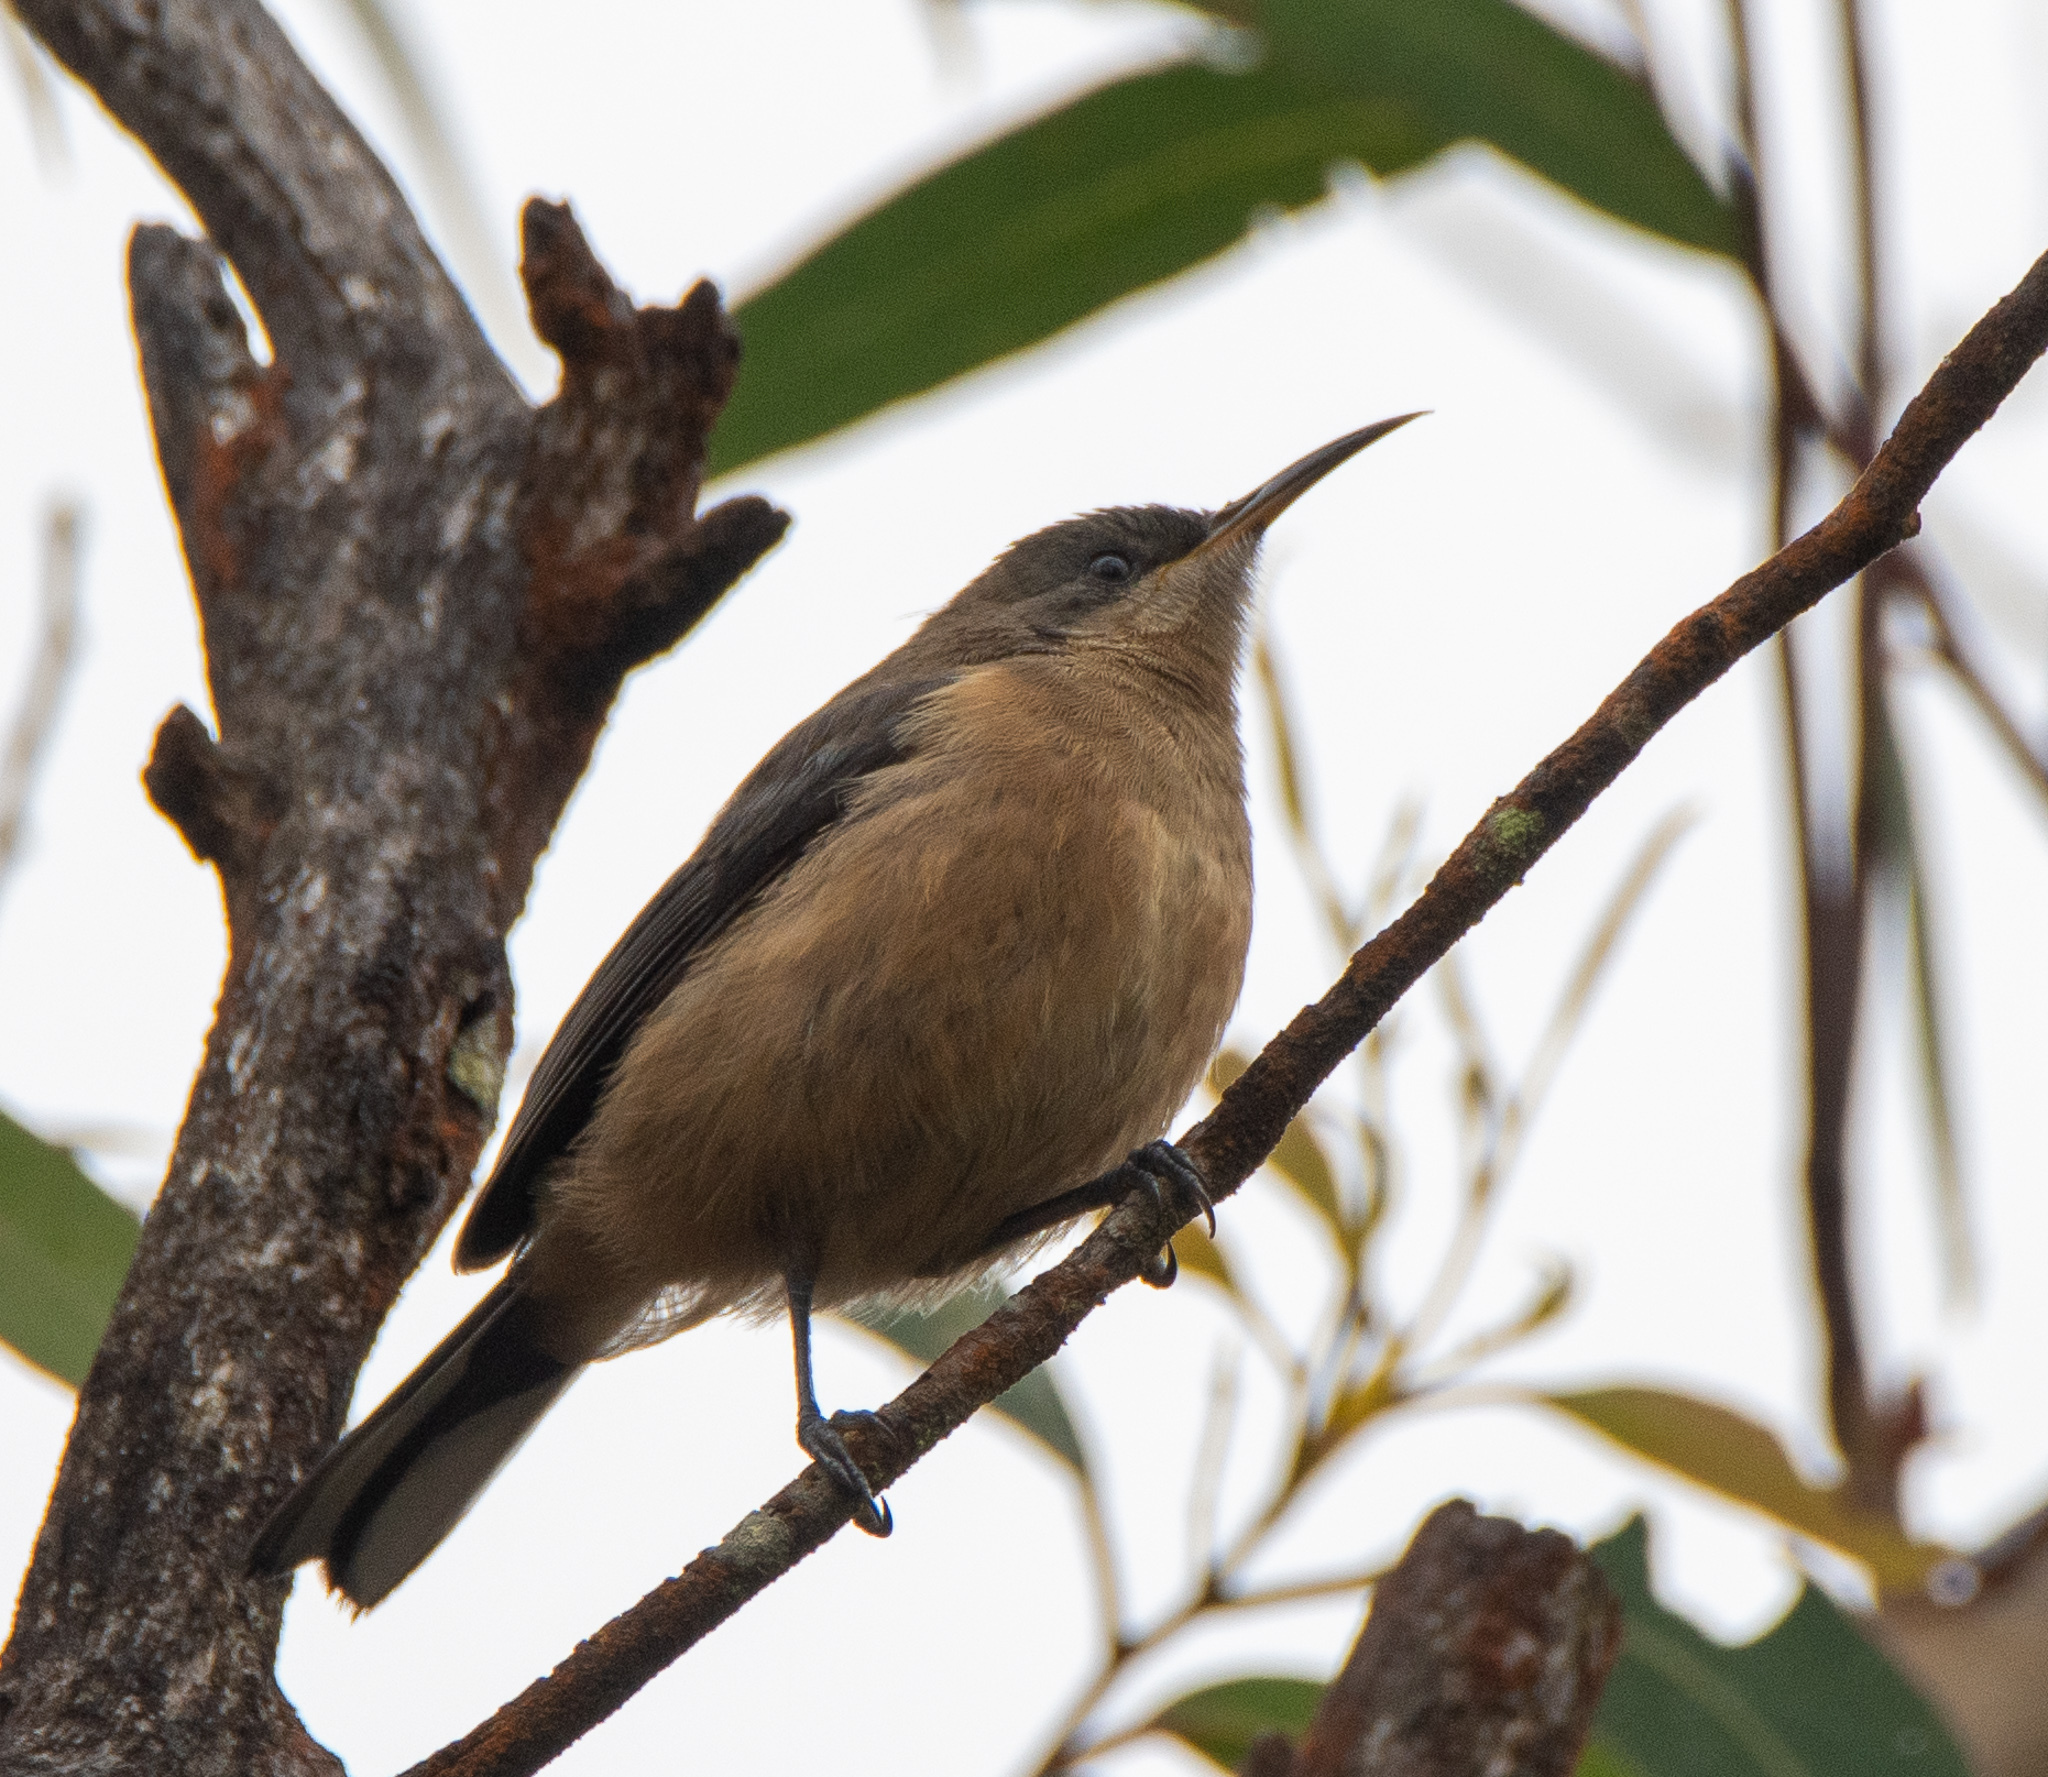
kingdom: Animalia
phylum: Chordata
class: Aves
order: Passeriformes
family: Meliphagidae
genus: Acanthorhynchus
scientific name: Acanthorhynchus tenuirostris
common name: Eastern spinebill
